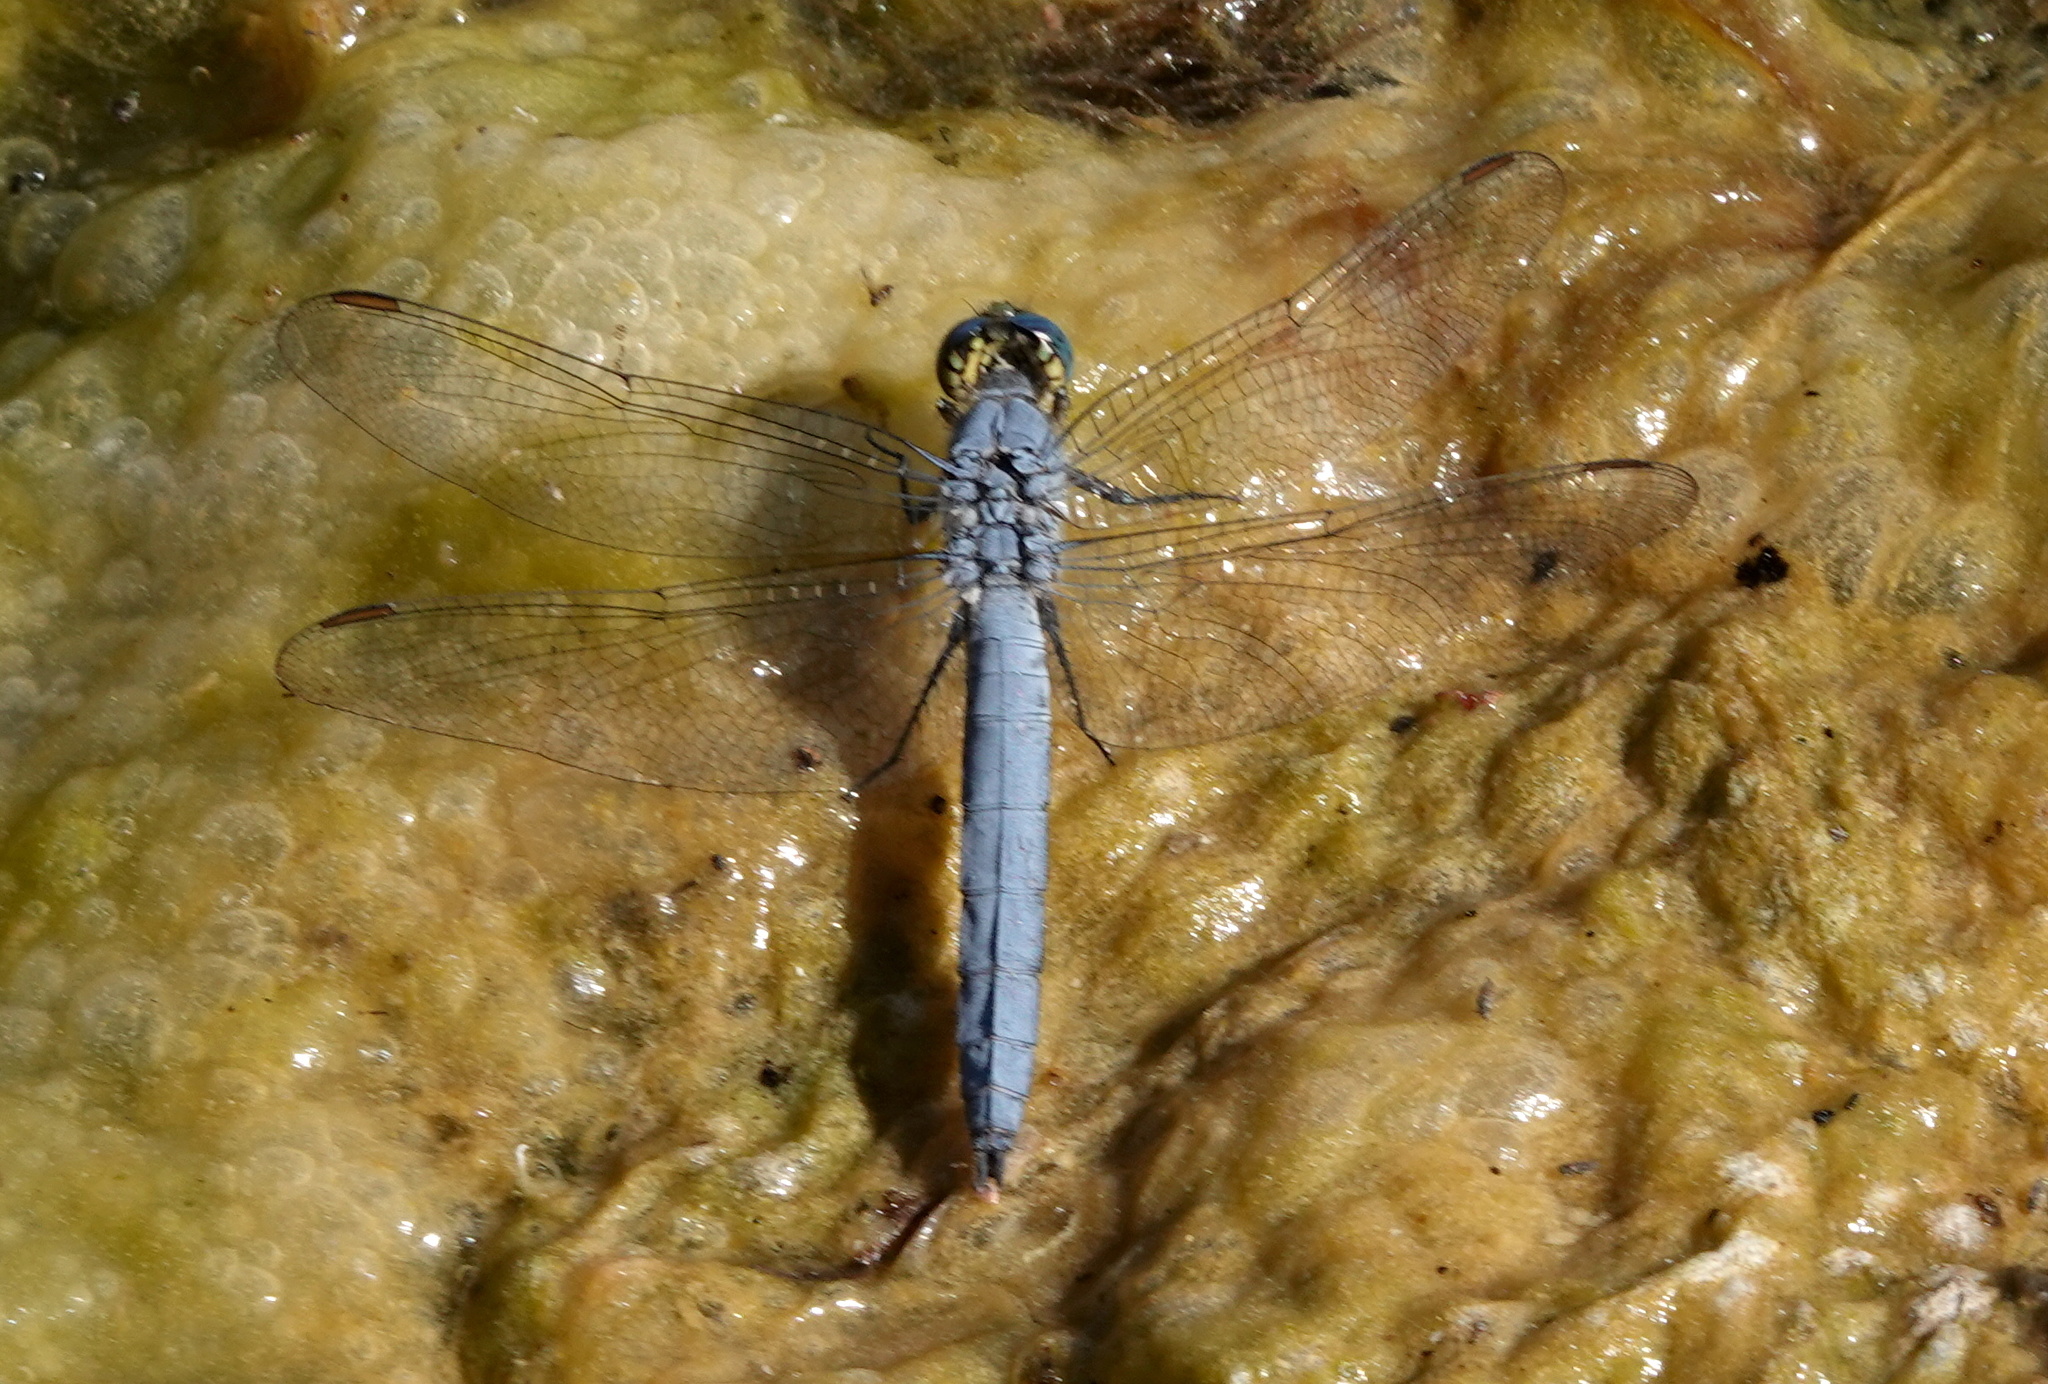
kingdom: Animalia
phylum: Arthropoda
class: Insecta
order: Odonata
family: Libellulidae
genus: Erythemis
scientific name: Erythemis collocata
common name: Western pondhawk
